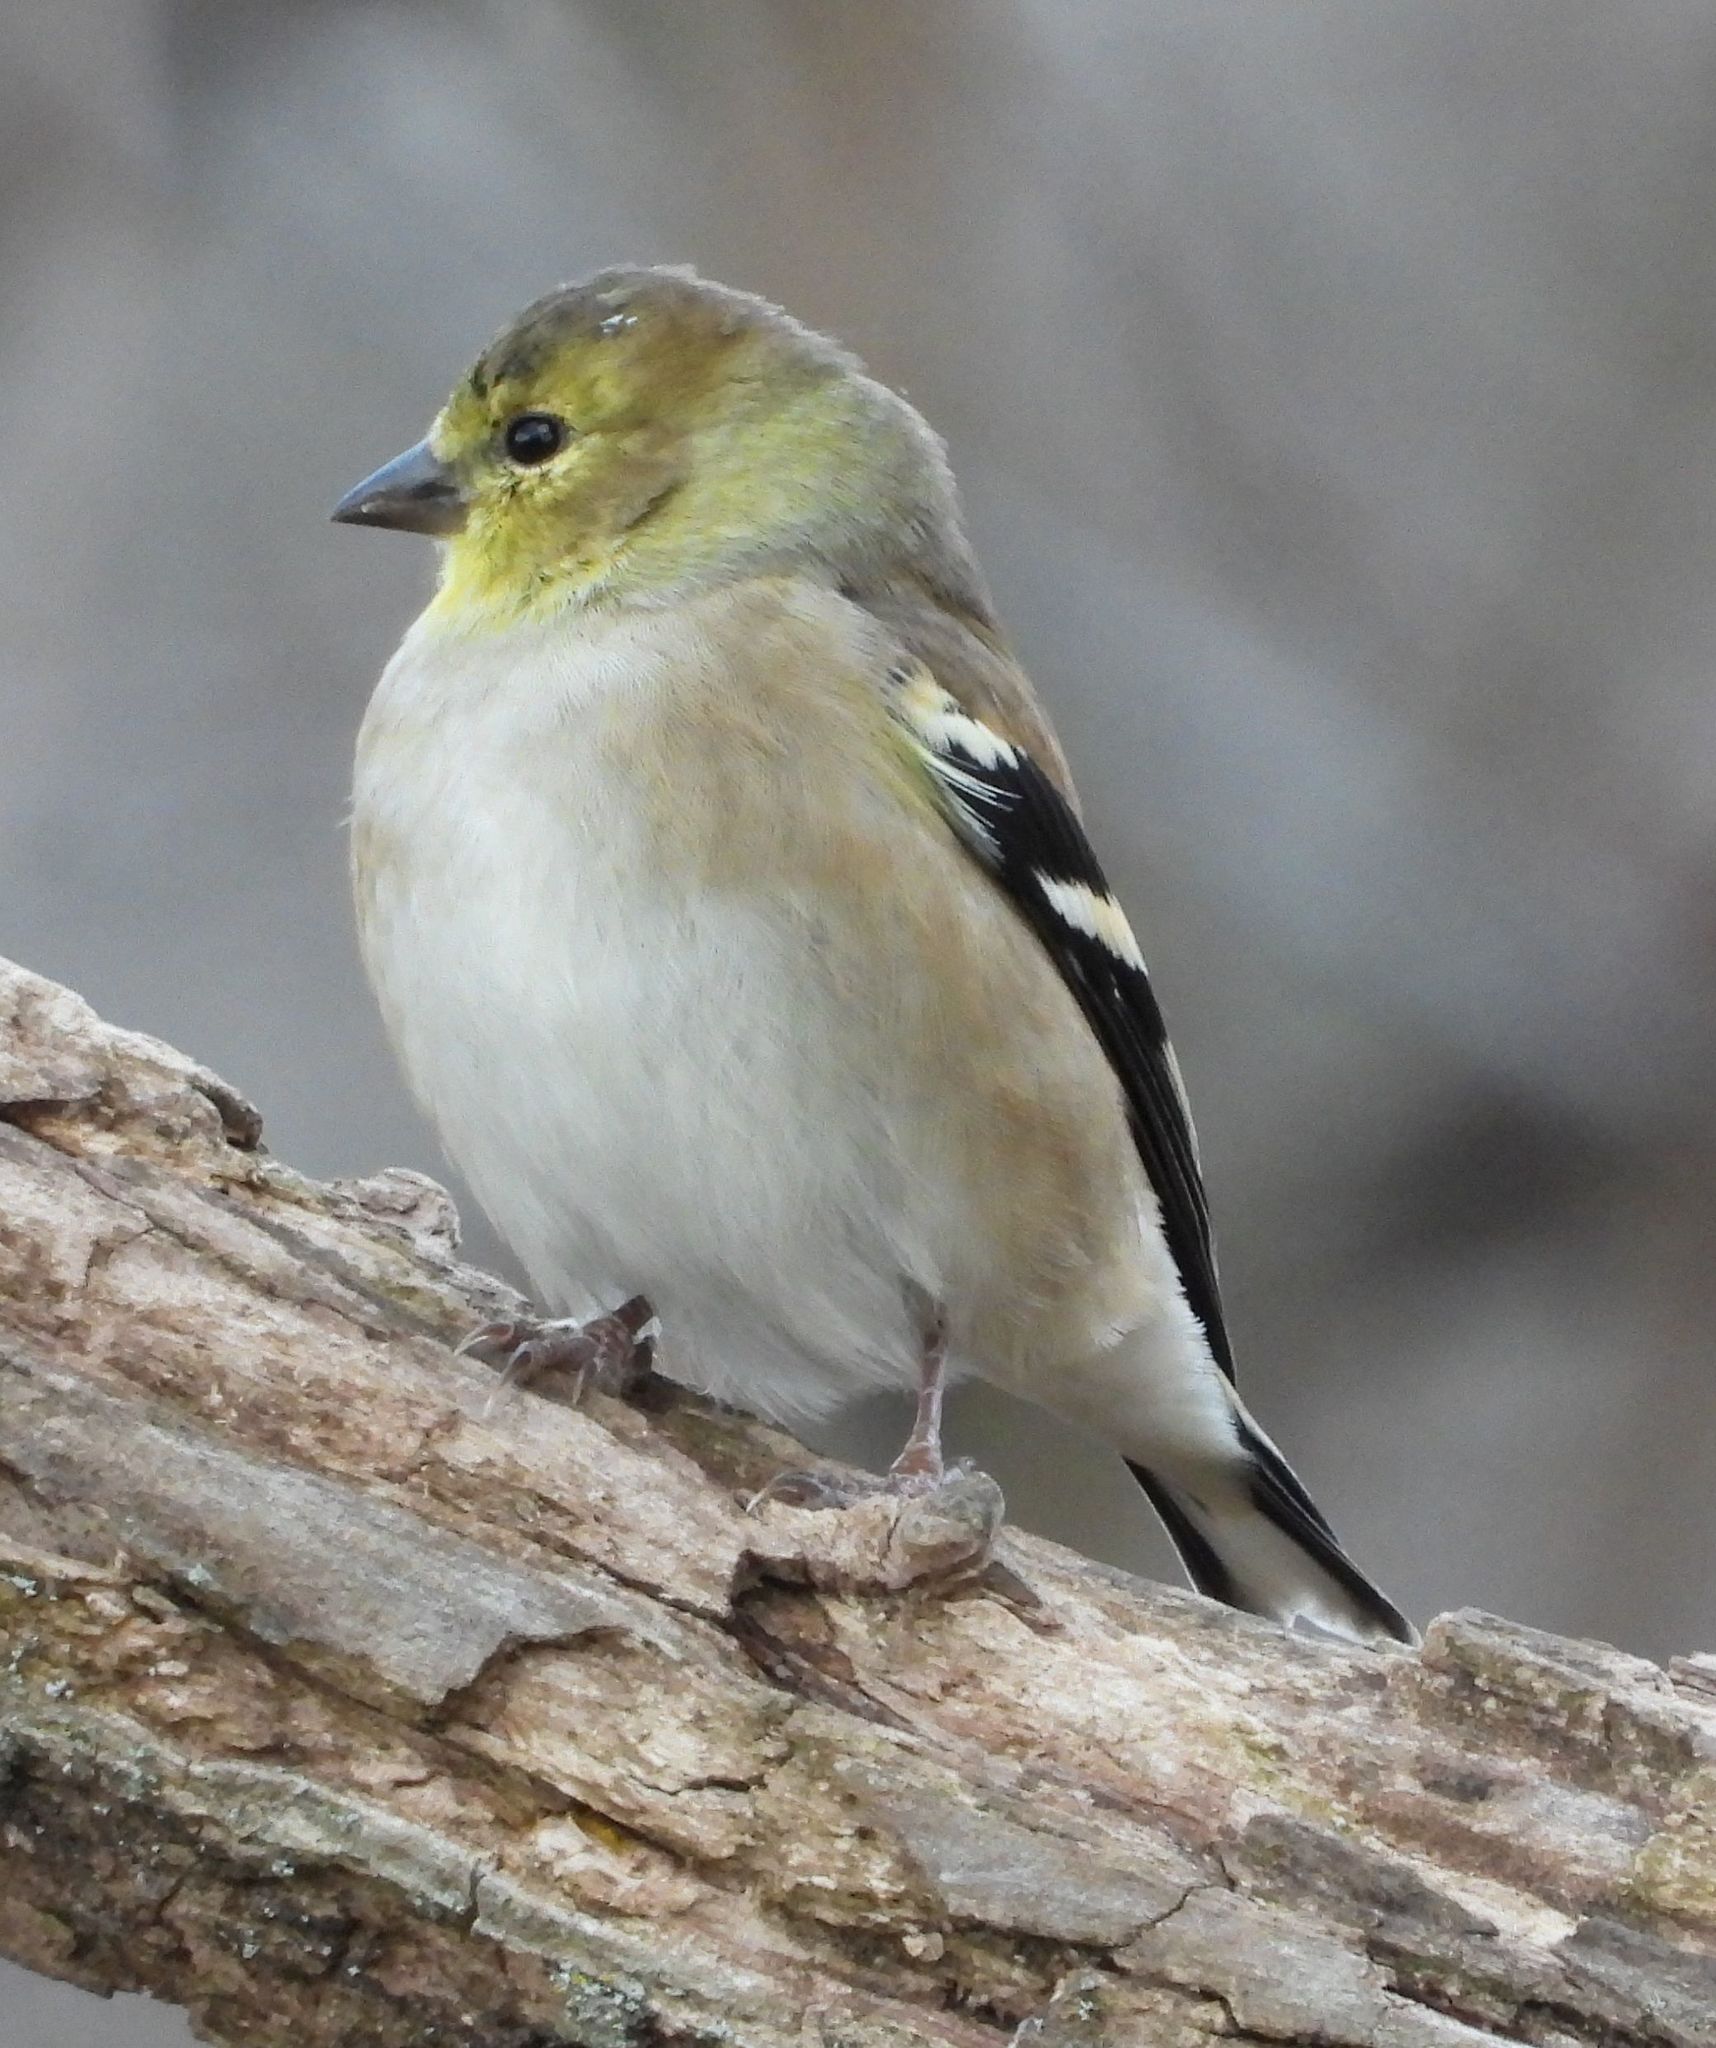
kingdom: Animalia
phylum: Chordata
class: Aves
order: Passeriformes
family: Fringillidae
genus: Spinus
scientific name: Spinus tristis
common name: American goldfinch
